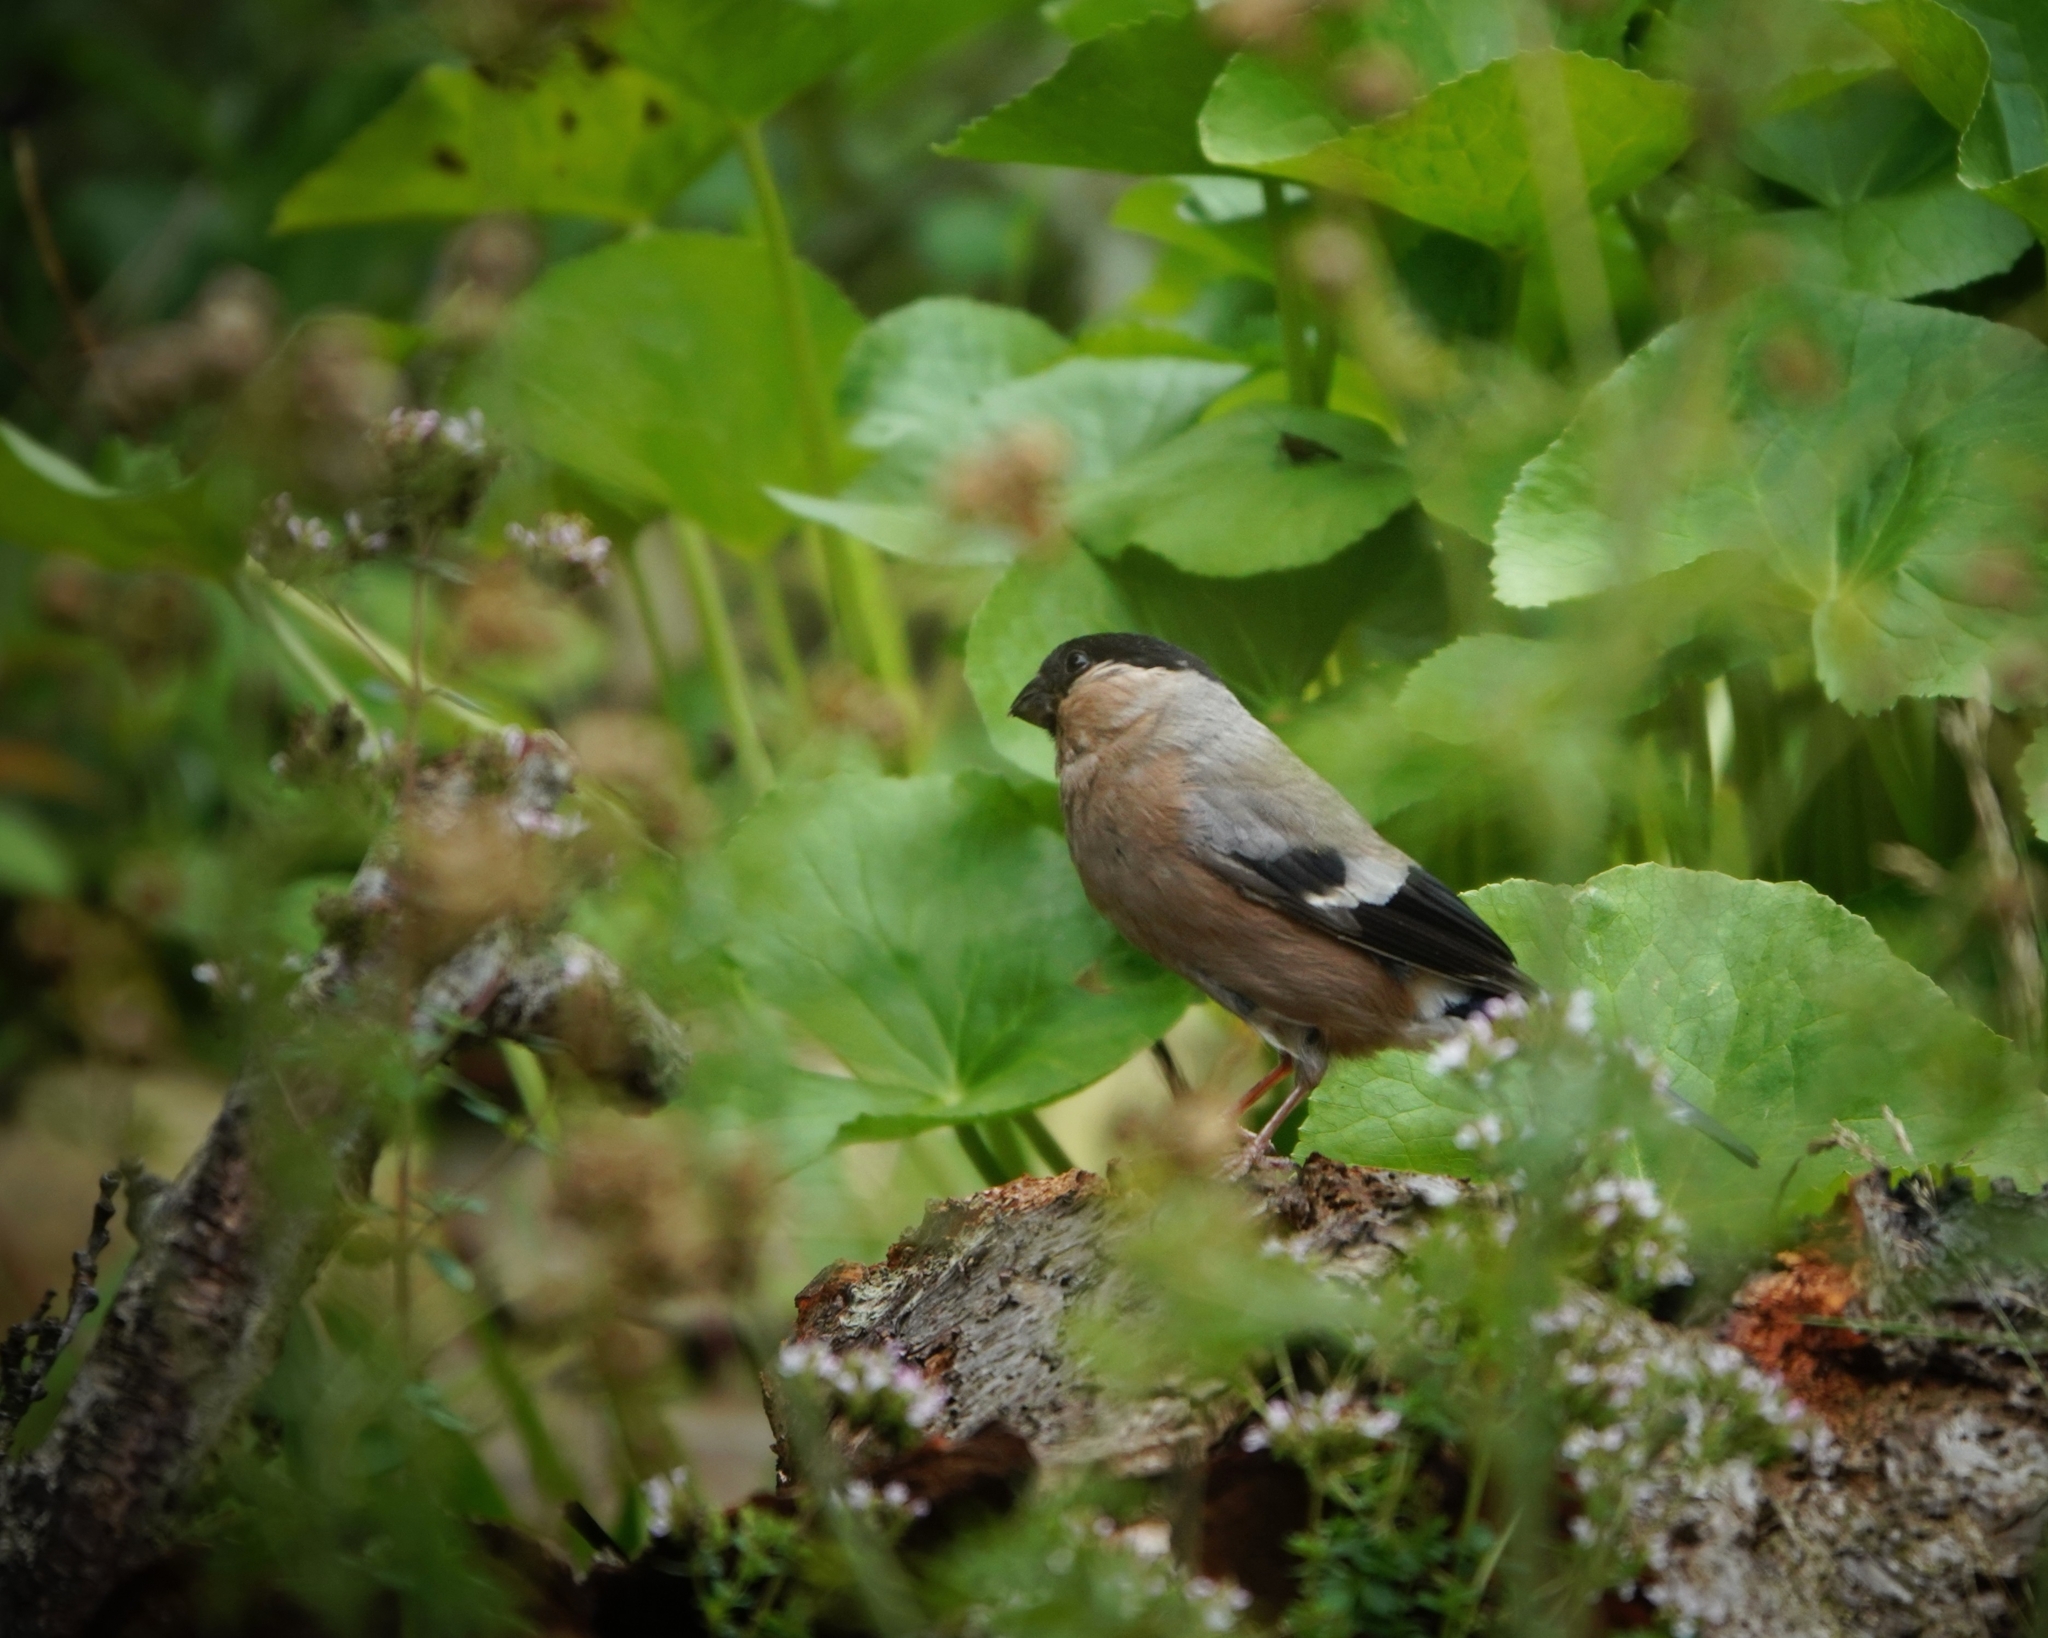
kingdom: Animalia
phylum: Chordata
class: Aves
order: Passeriformes
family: Fringillidae
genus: Pyrrhula
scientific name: Pyrrhula pyrrhula
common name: Eurasian bullfinch
